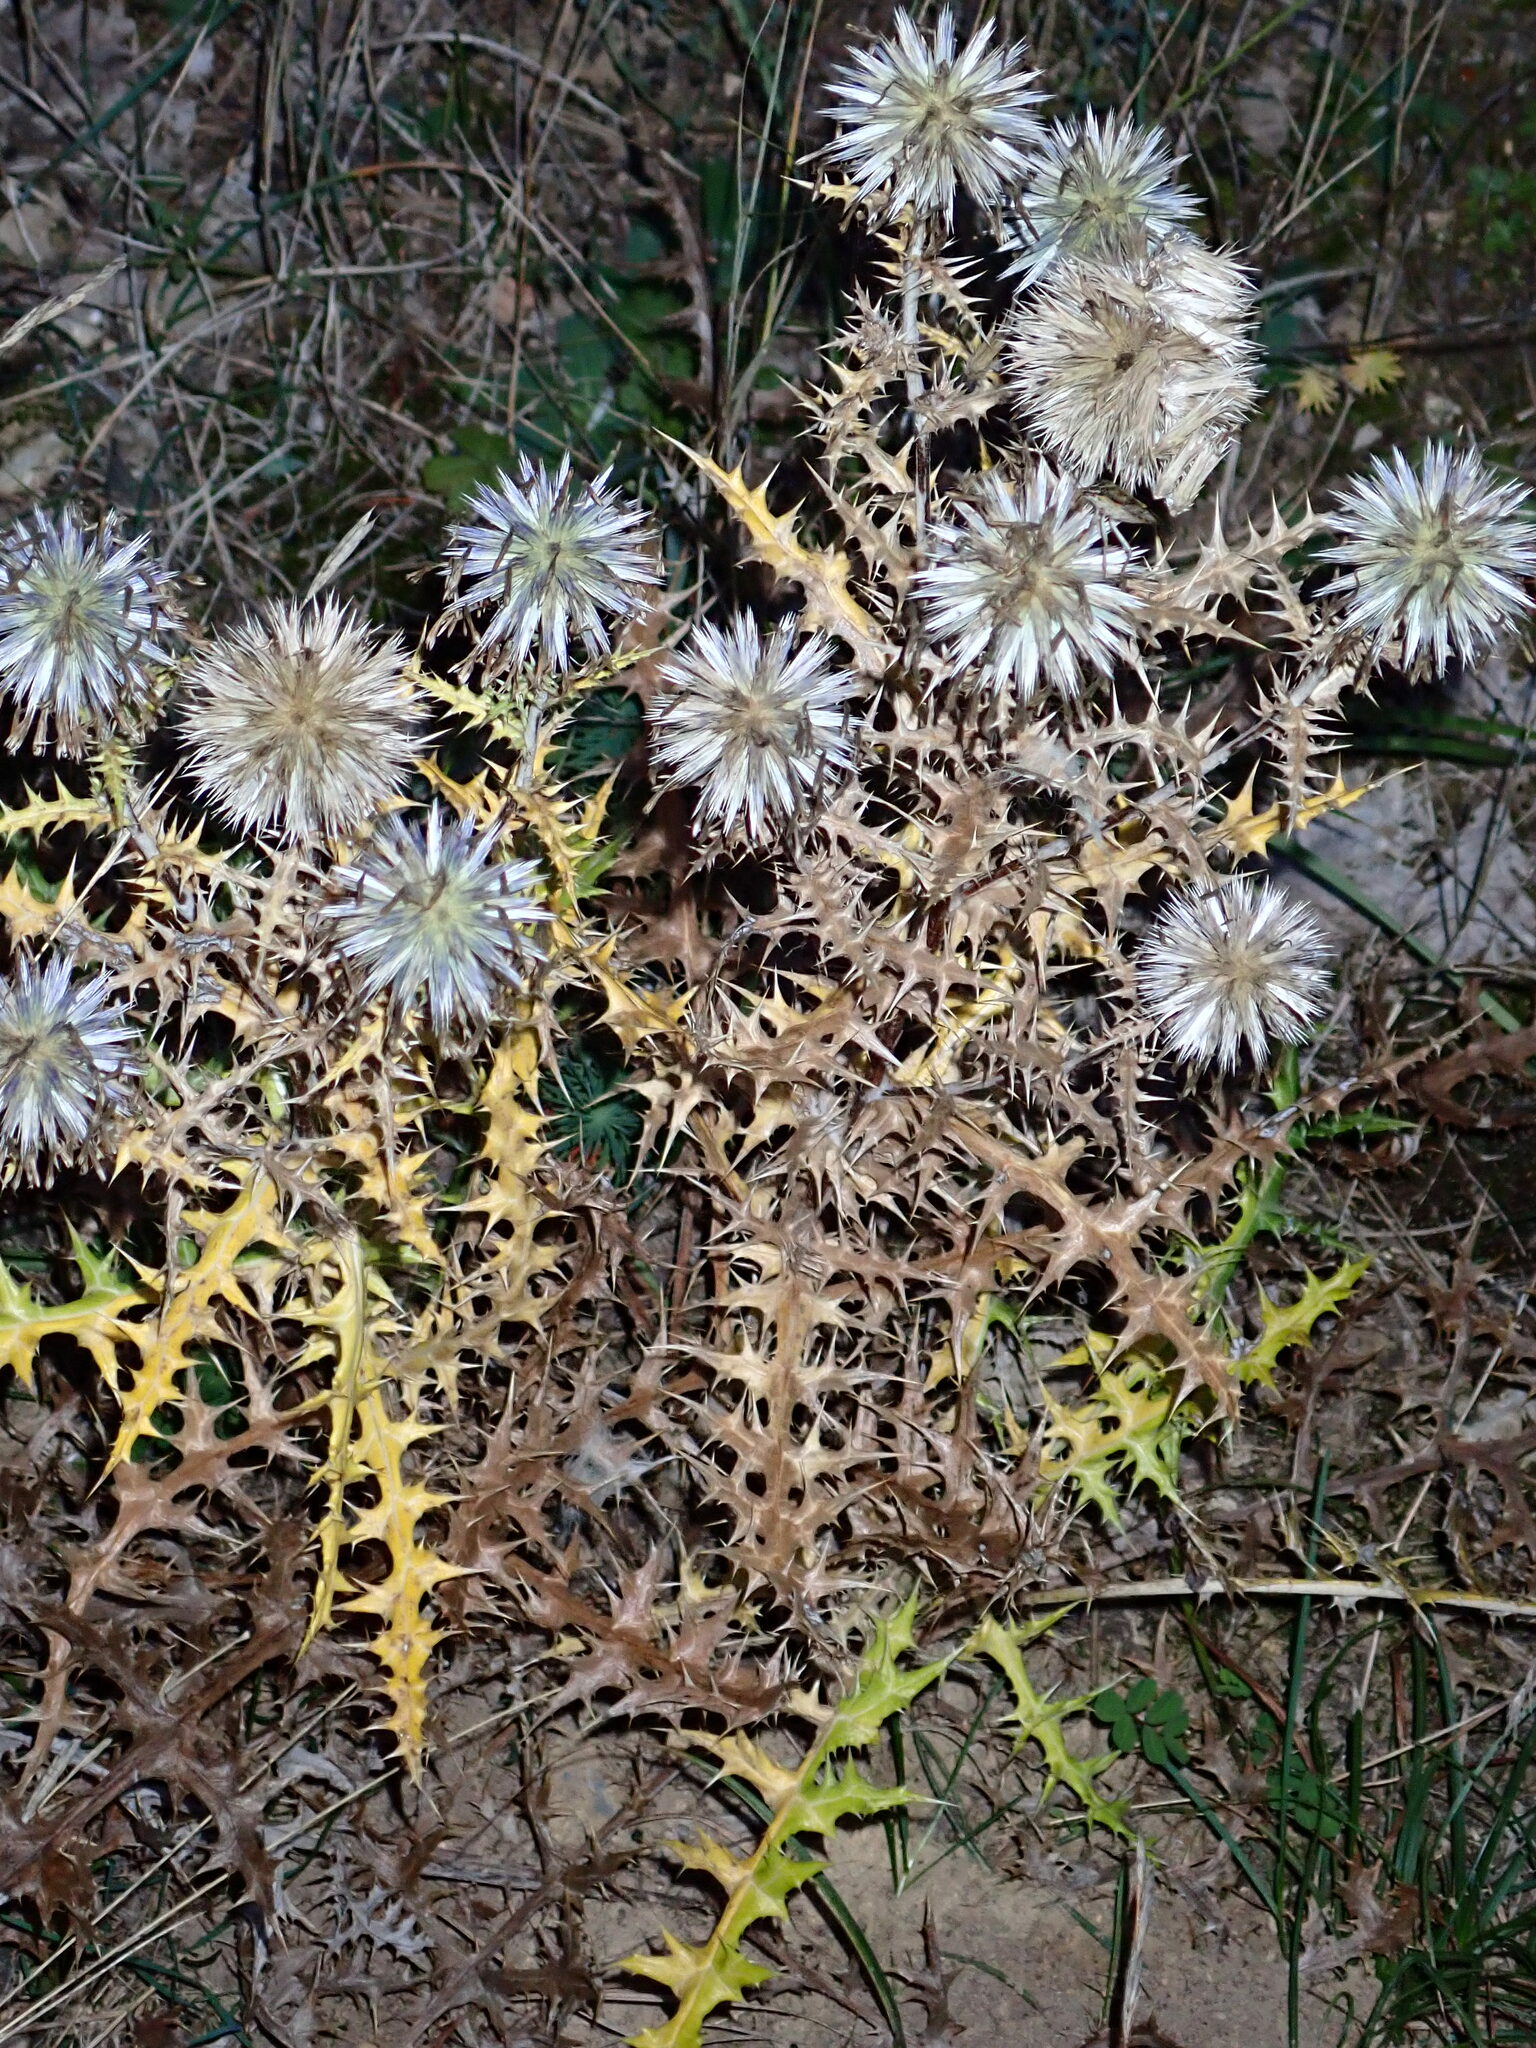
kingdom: Plantae
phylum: Tracheophyta
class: Magnoliopsida
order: Asterales
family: Asteraceae
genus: Echinops
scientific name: Echinops ritro
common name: Globe thistle
